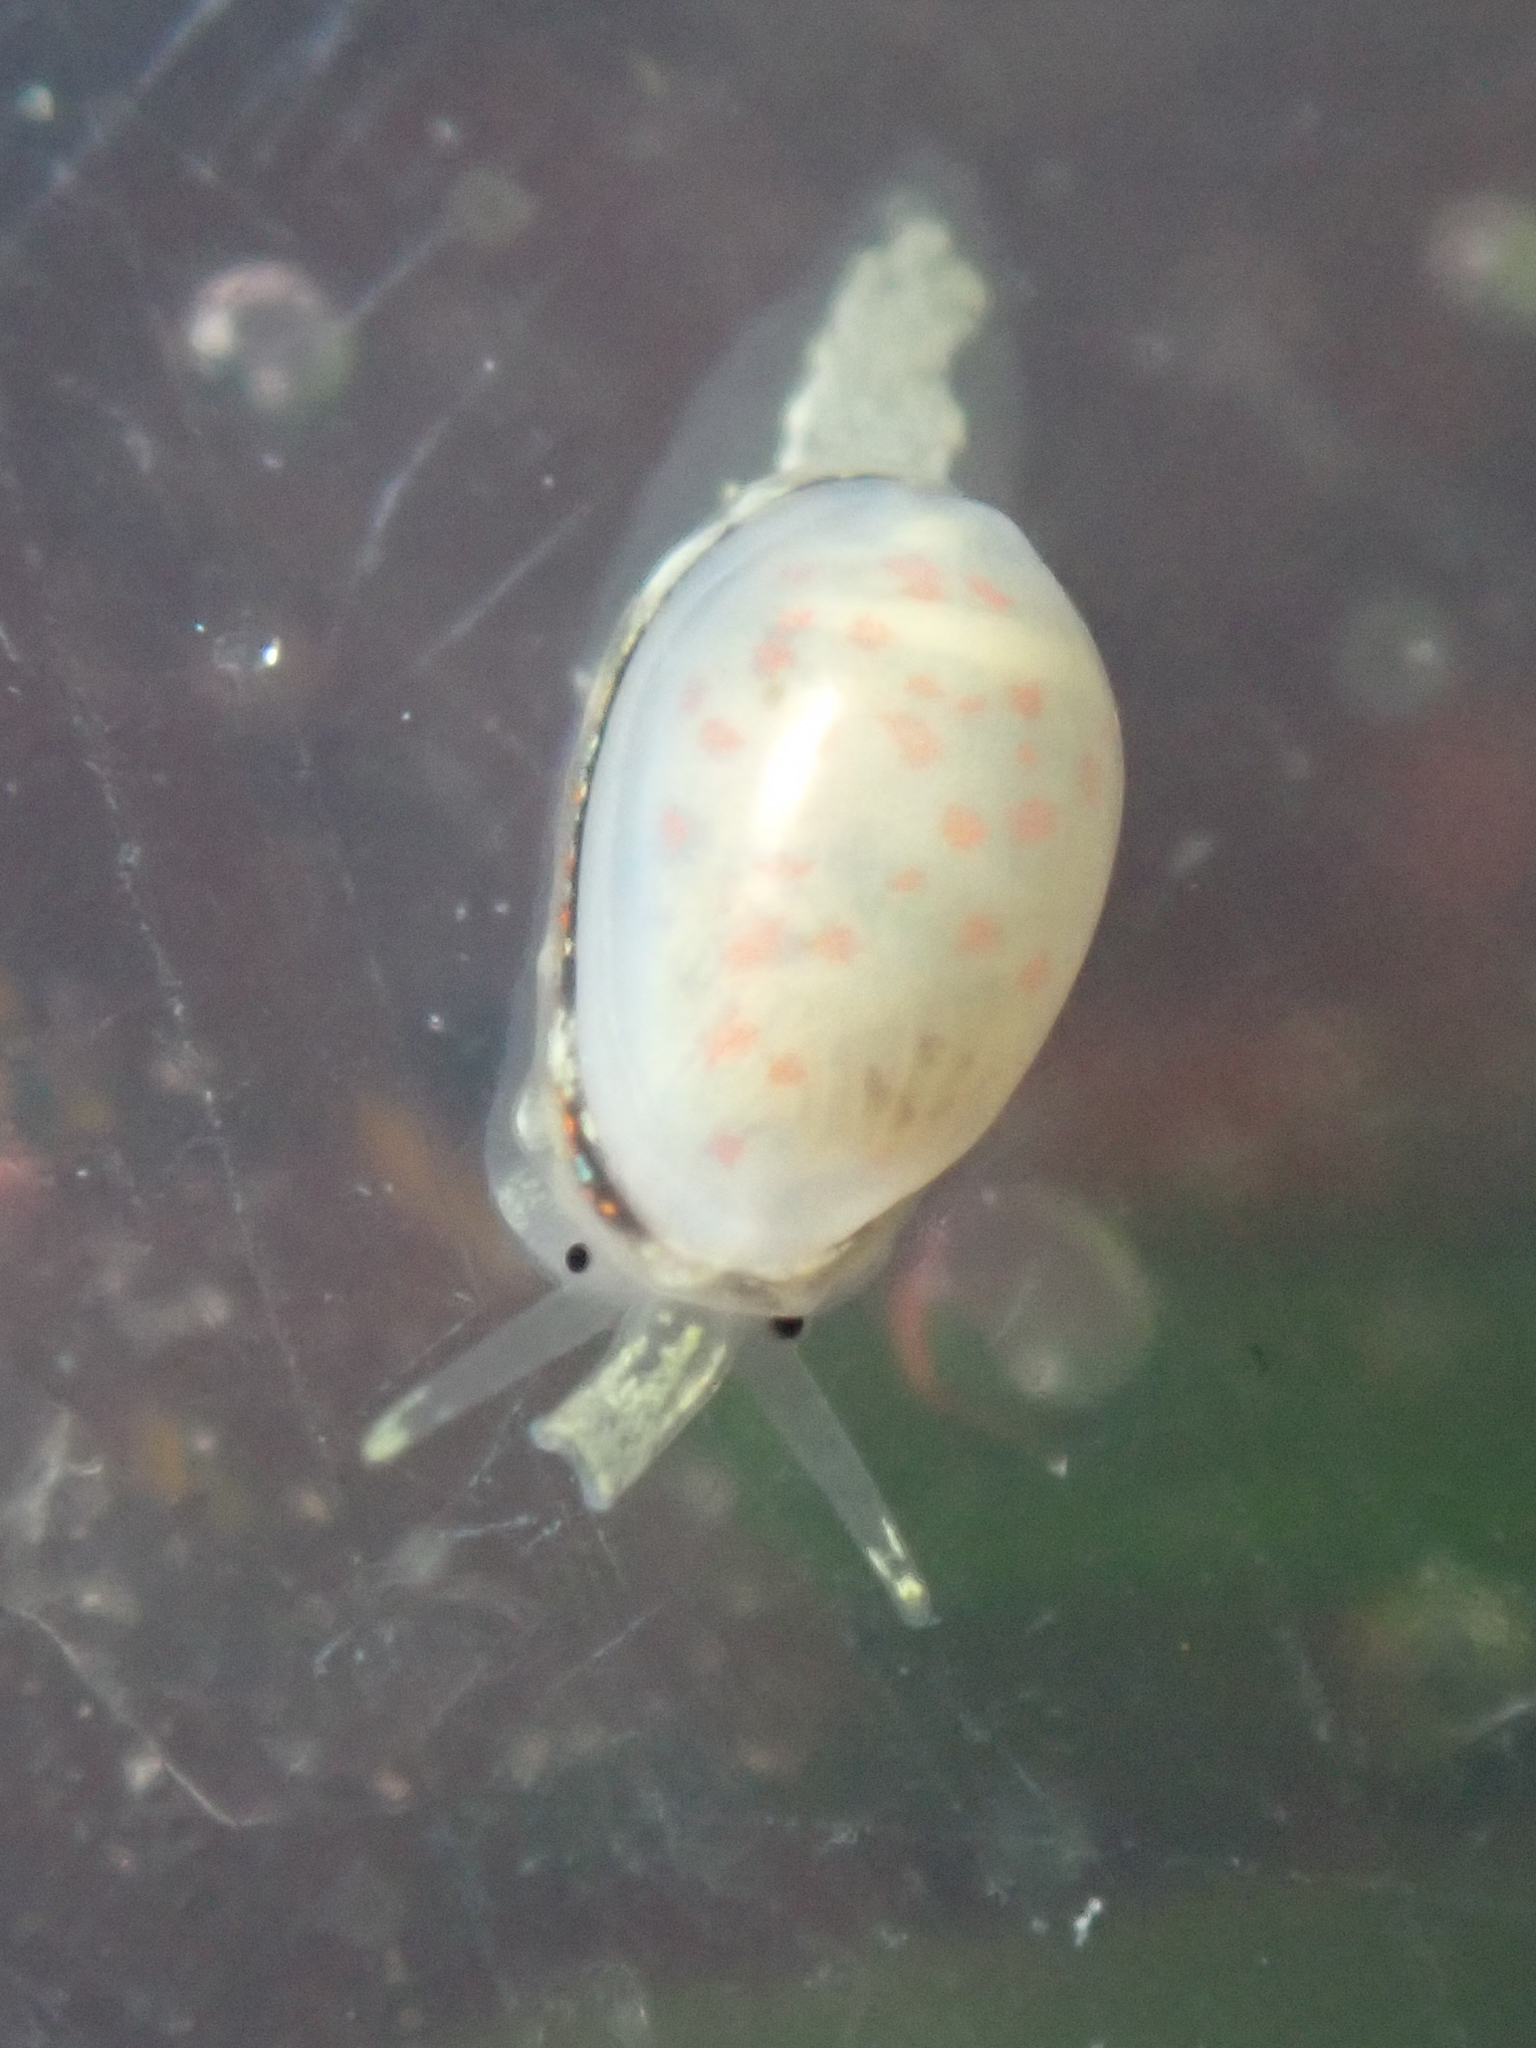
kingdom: Animalia
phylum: Mollusca
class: Gastropoda
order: Neogastropoda
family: Granulinidae
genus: Granulina
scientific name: Granulina margaritula
